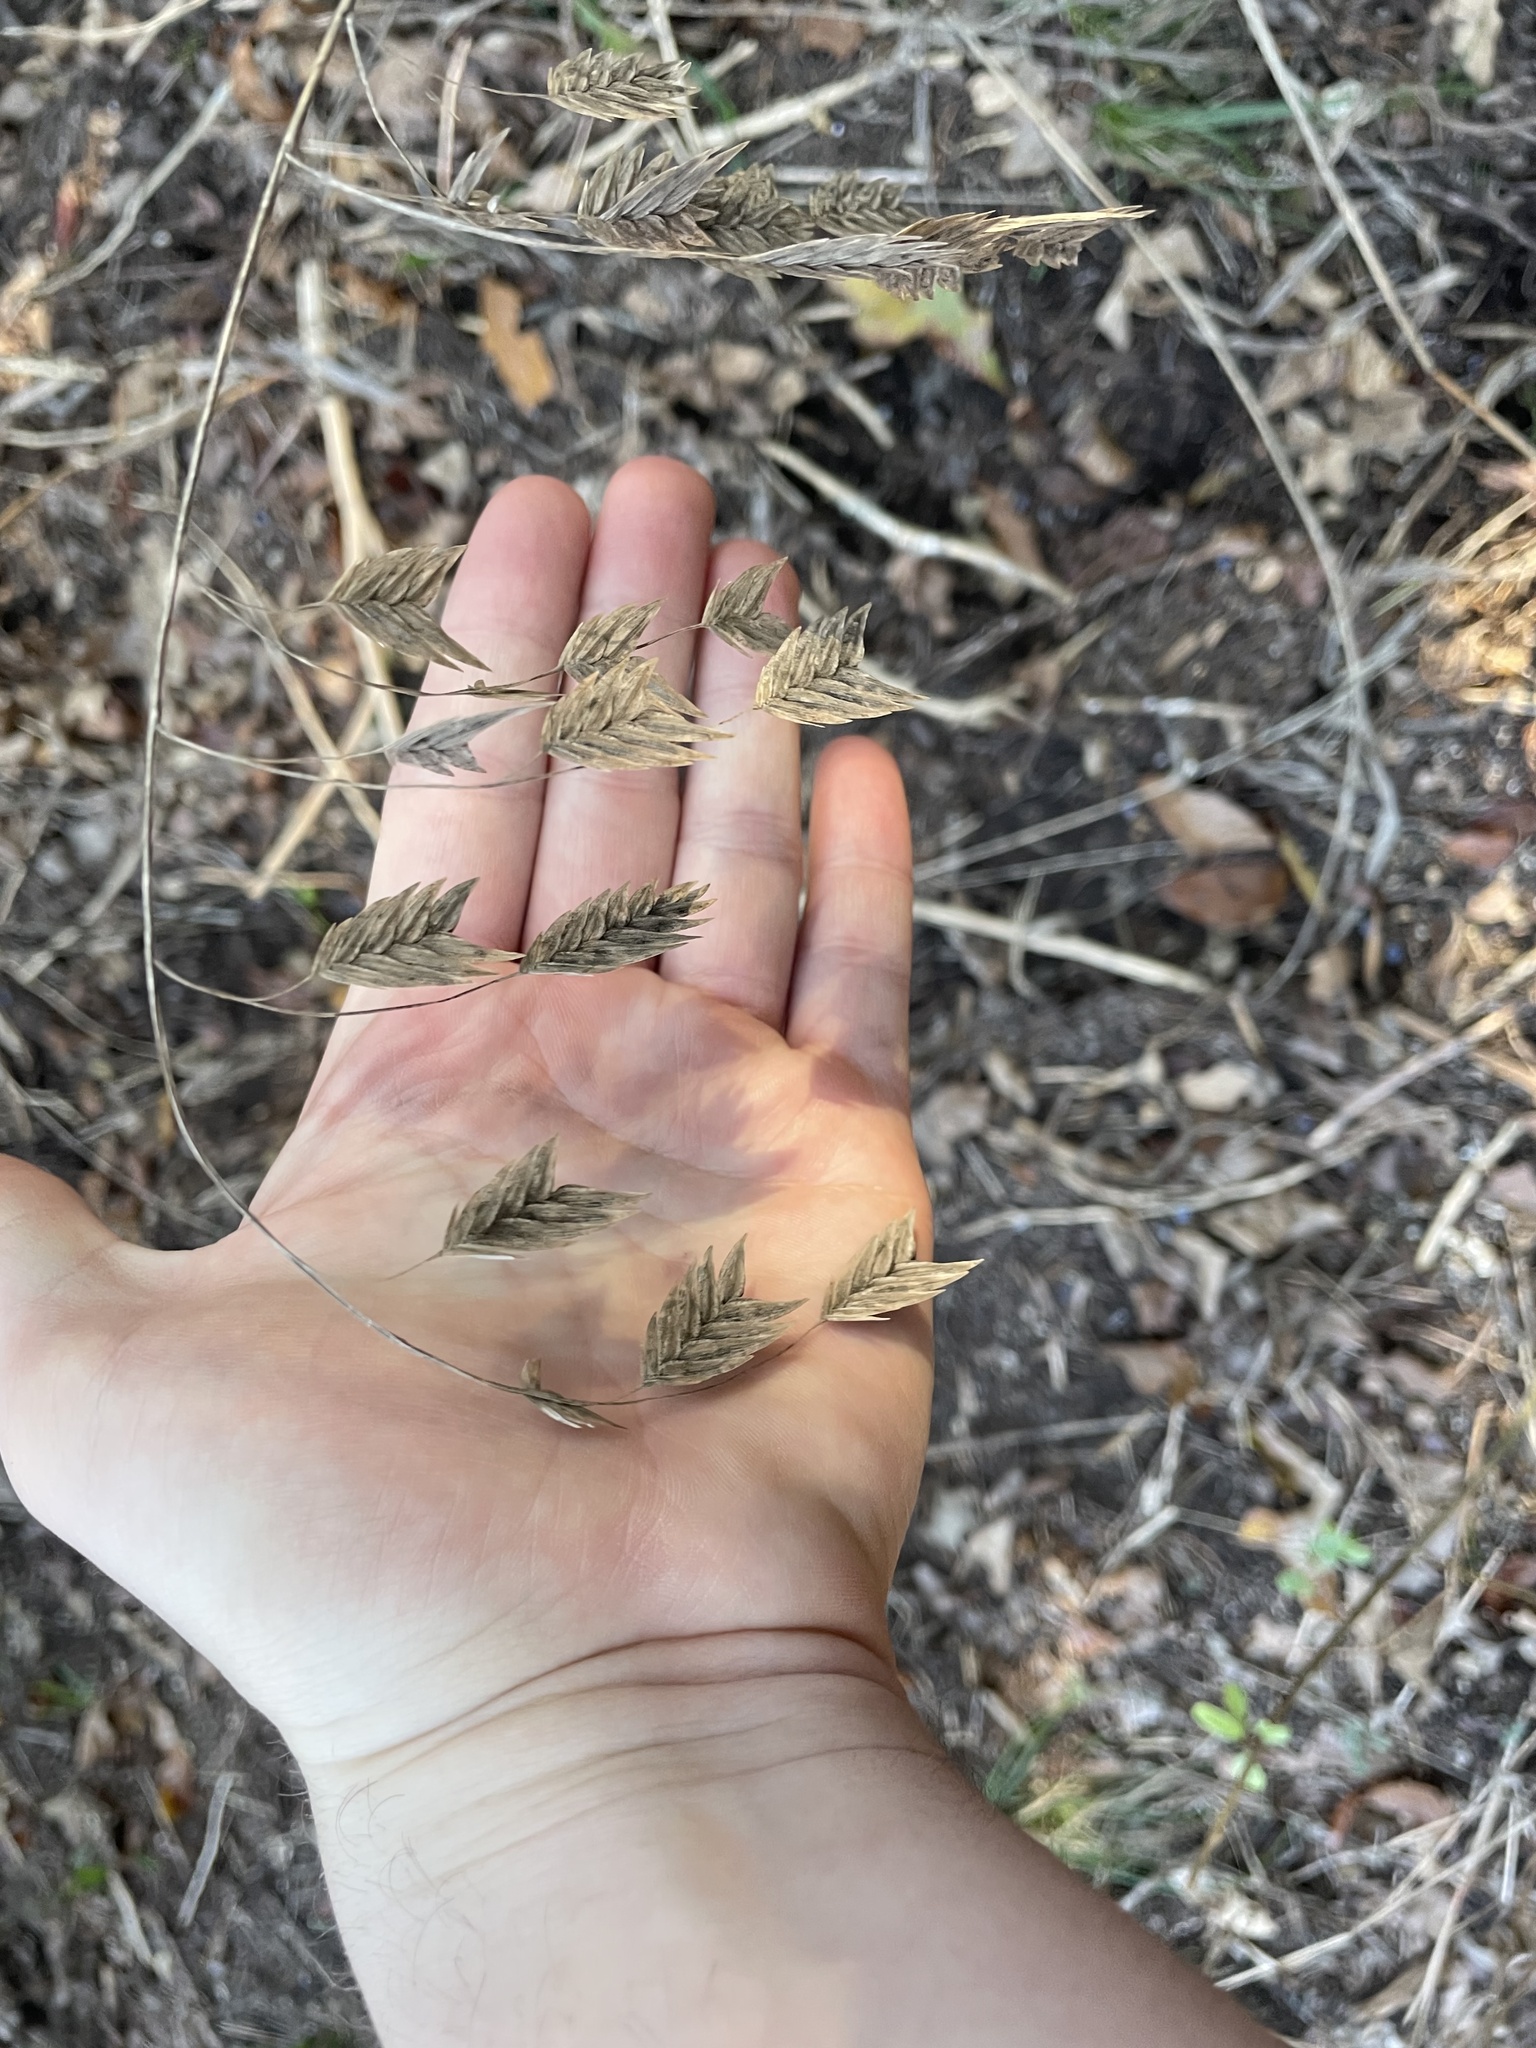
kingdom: Plantae
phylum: Tracheophyta
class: Liliopsida
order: Poales
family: Poaceae
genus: Chasmanthium
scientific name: Chasmanthium latifolium
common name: Broad-leaved chasmanthium
